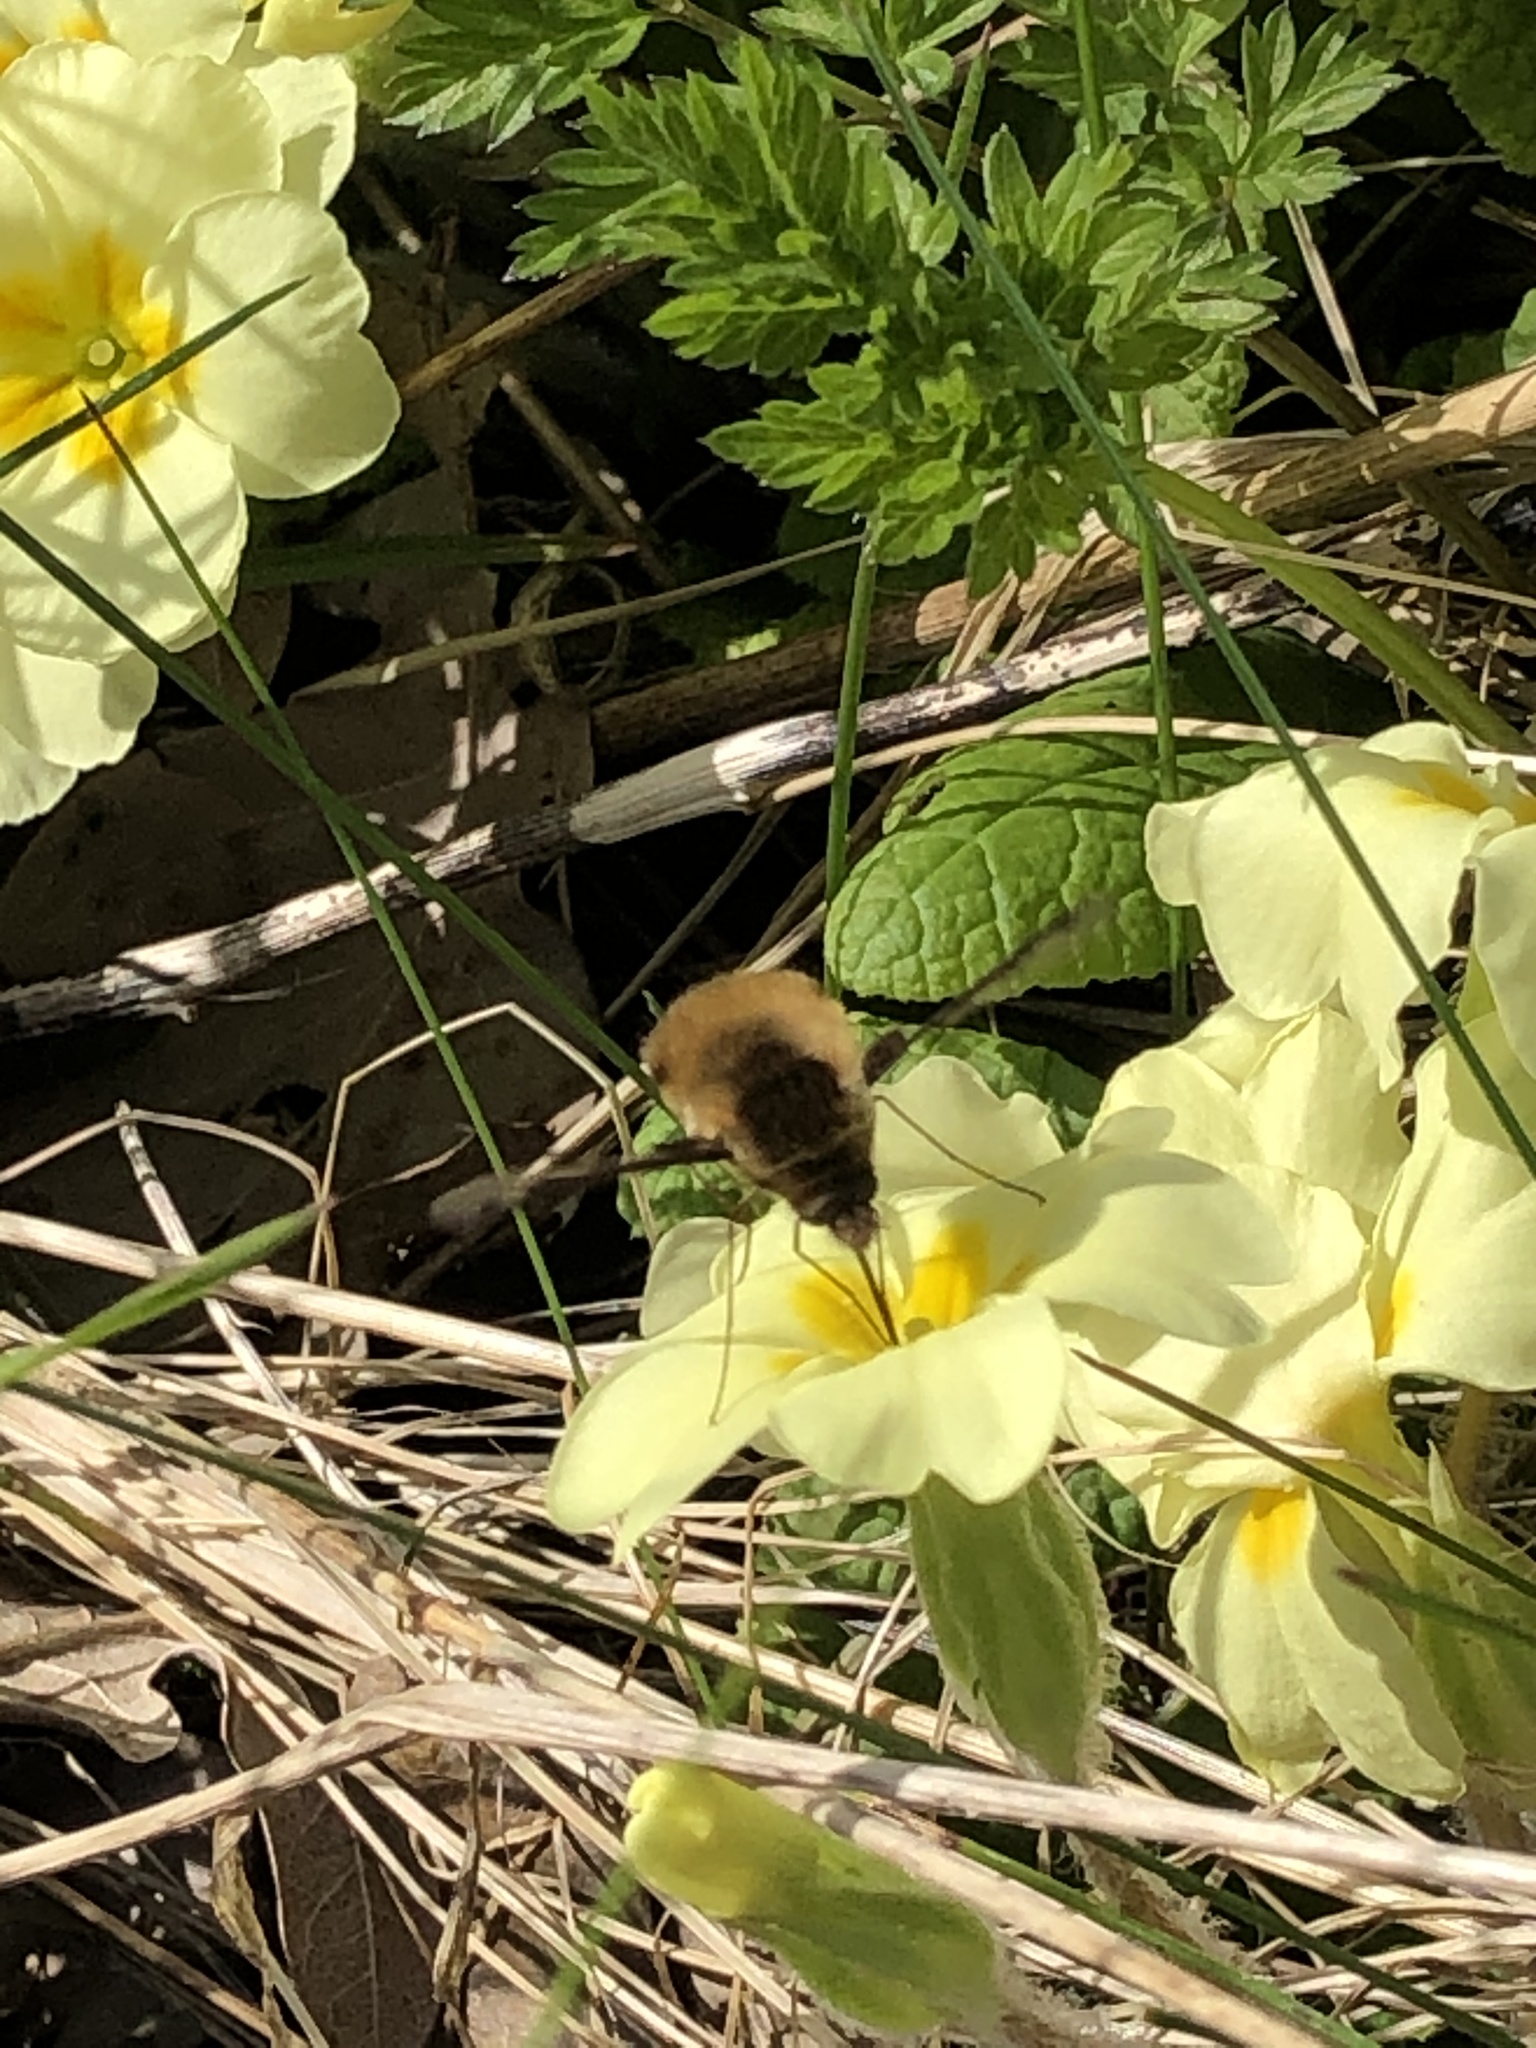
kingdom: Animalia
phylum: Arthropoda
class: Insecta
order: Diptera
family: Bombyliidae
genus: Bombylius
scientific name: Bombylius major
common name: Bee fly
